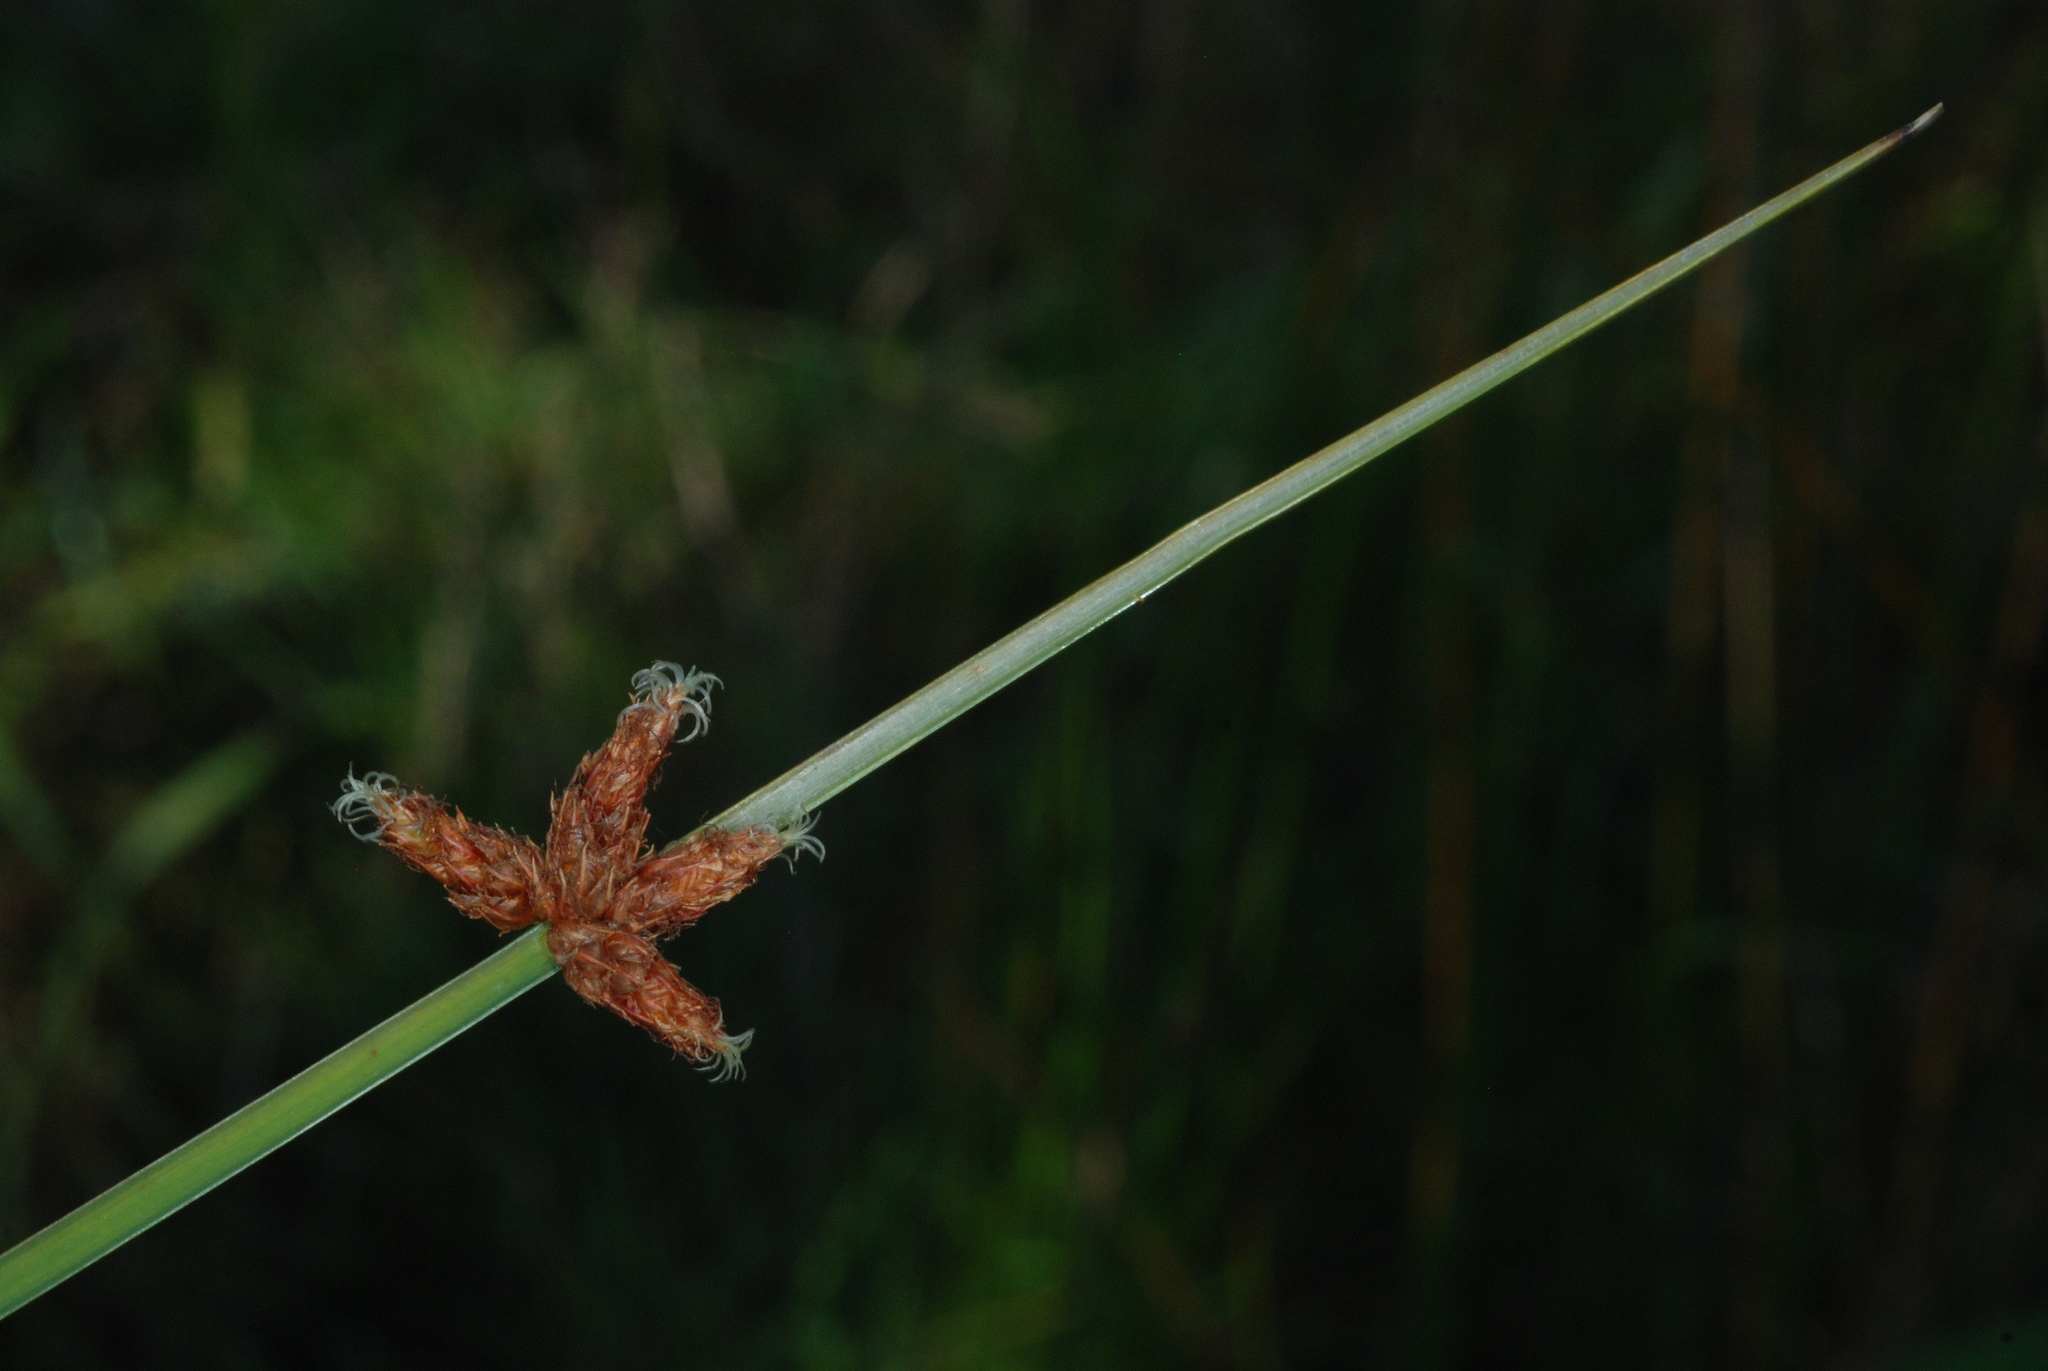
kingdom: Plantae
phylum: Tracheophyta
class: Liliopsida
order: Poales
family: Cyperaceae
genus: Schoenoplectus
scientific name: Schoenoplectus pungens
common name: Sharp club-rush
